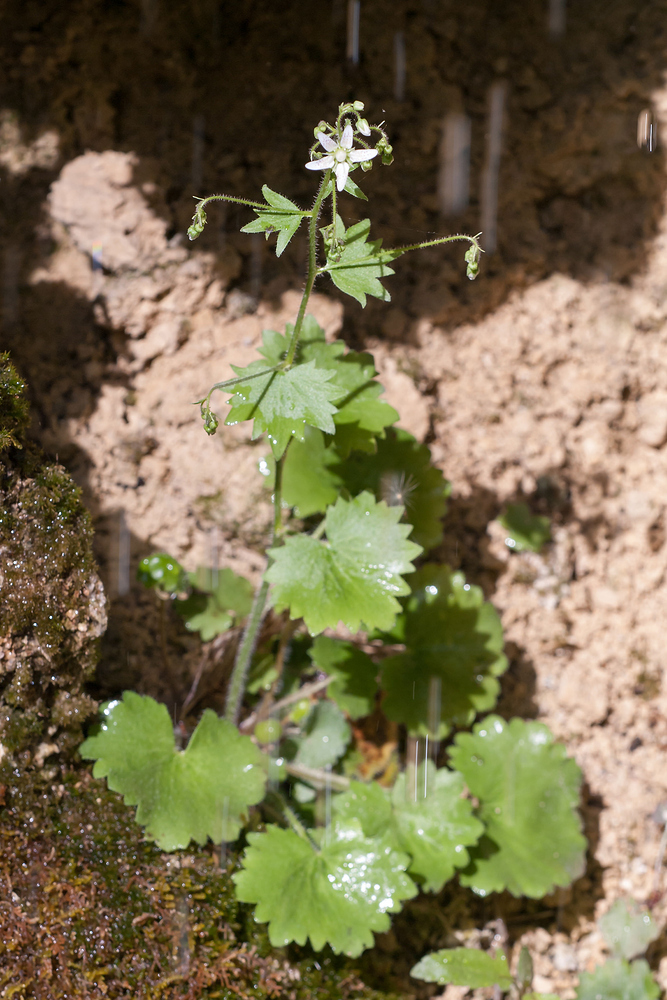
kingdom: Plantae
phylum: Tracheophyta
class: Magnoliopsida
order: Saxifragales
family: Saxifragaceae
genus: Saxifraga
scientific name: Saxifraga rotundifolia
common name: Round-leaved saxifrage
